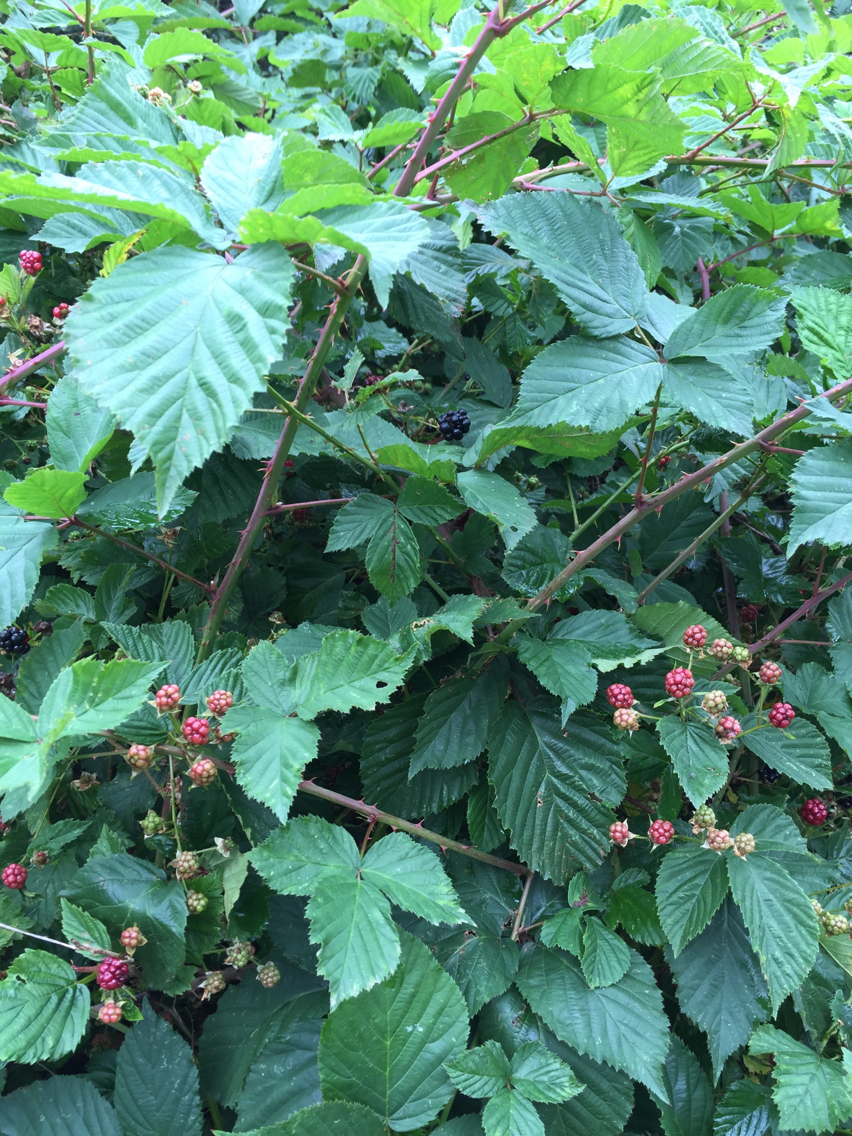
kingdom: Plantae
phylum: Tracheophyta
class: Magnoliopsida
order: Rosales
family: Rosaceae
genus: Rubus
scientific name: Rubus
